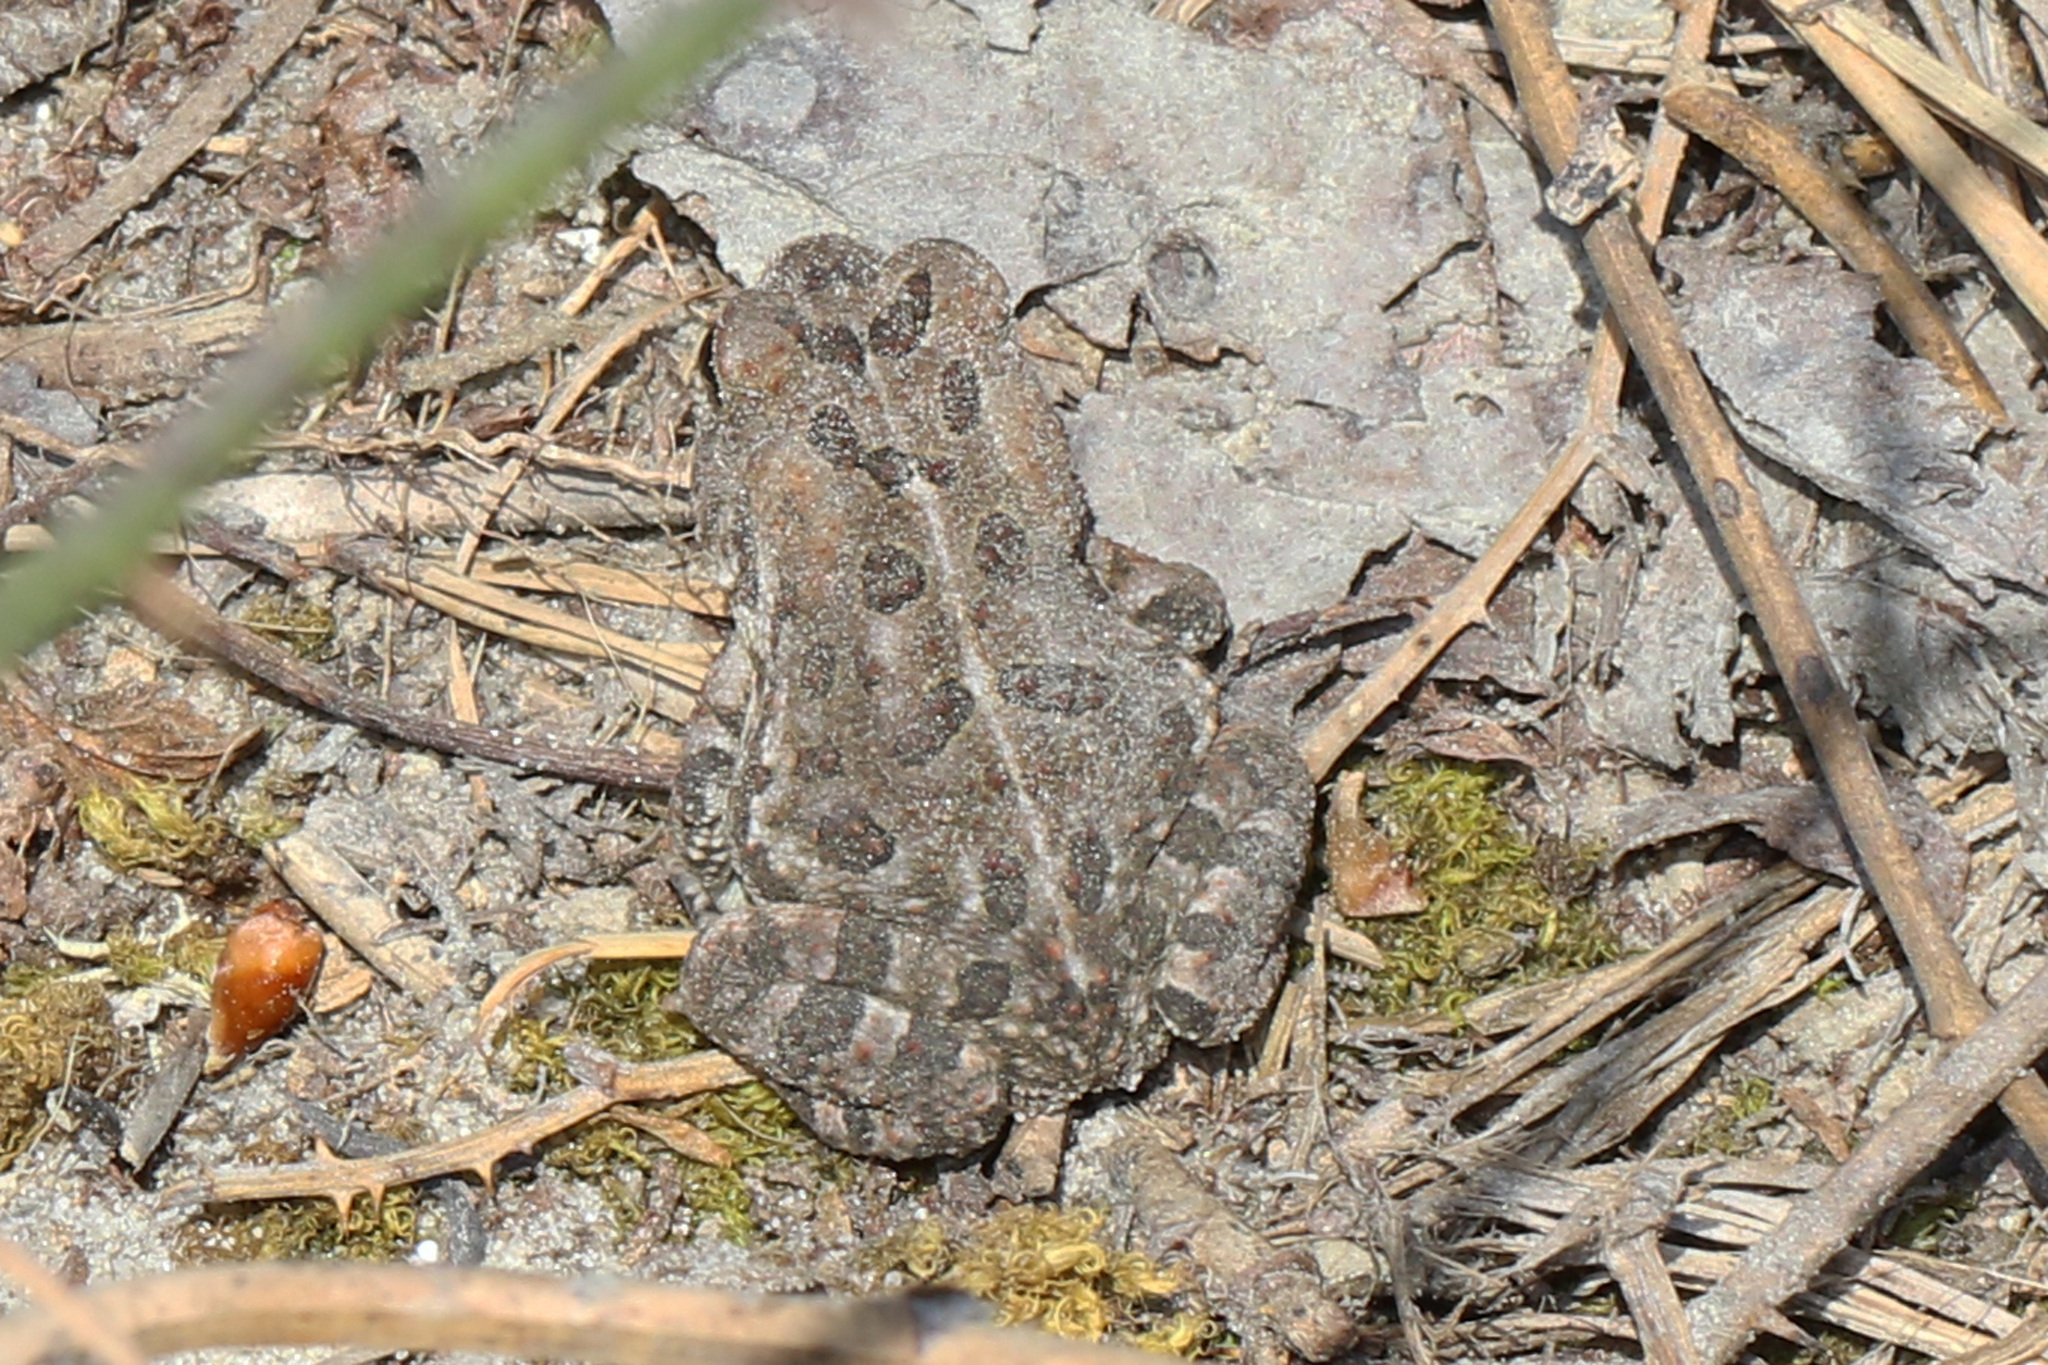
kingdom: Animalia
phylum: Chordata
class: Amphibia
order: Anura
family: Bufonidae
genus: Anaxyrus
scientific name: Anaxyrus fowleri
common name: Fowler's toad
